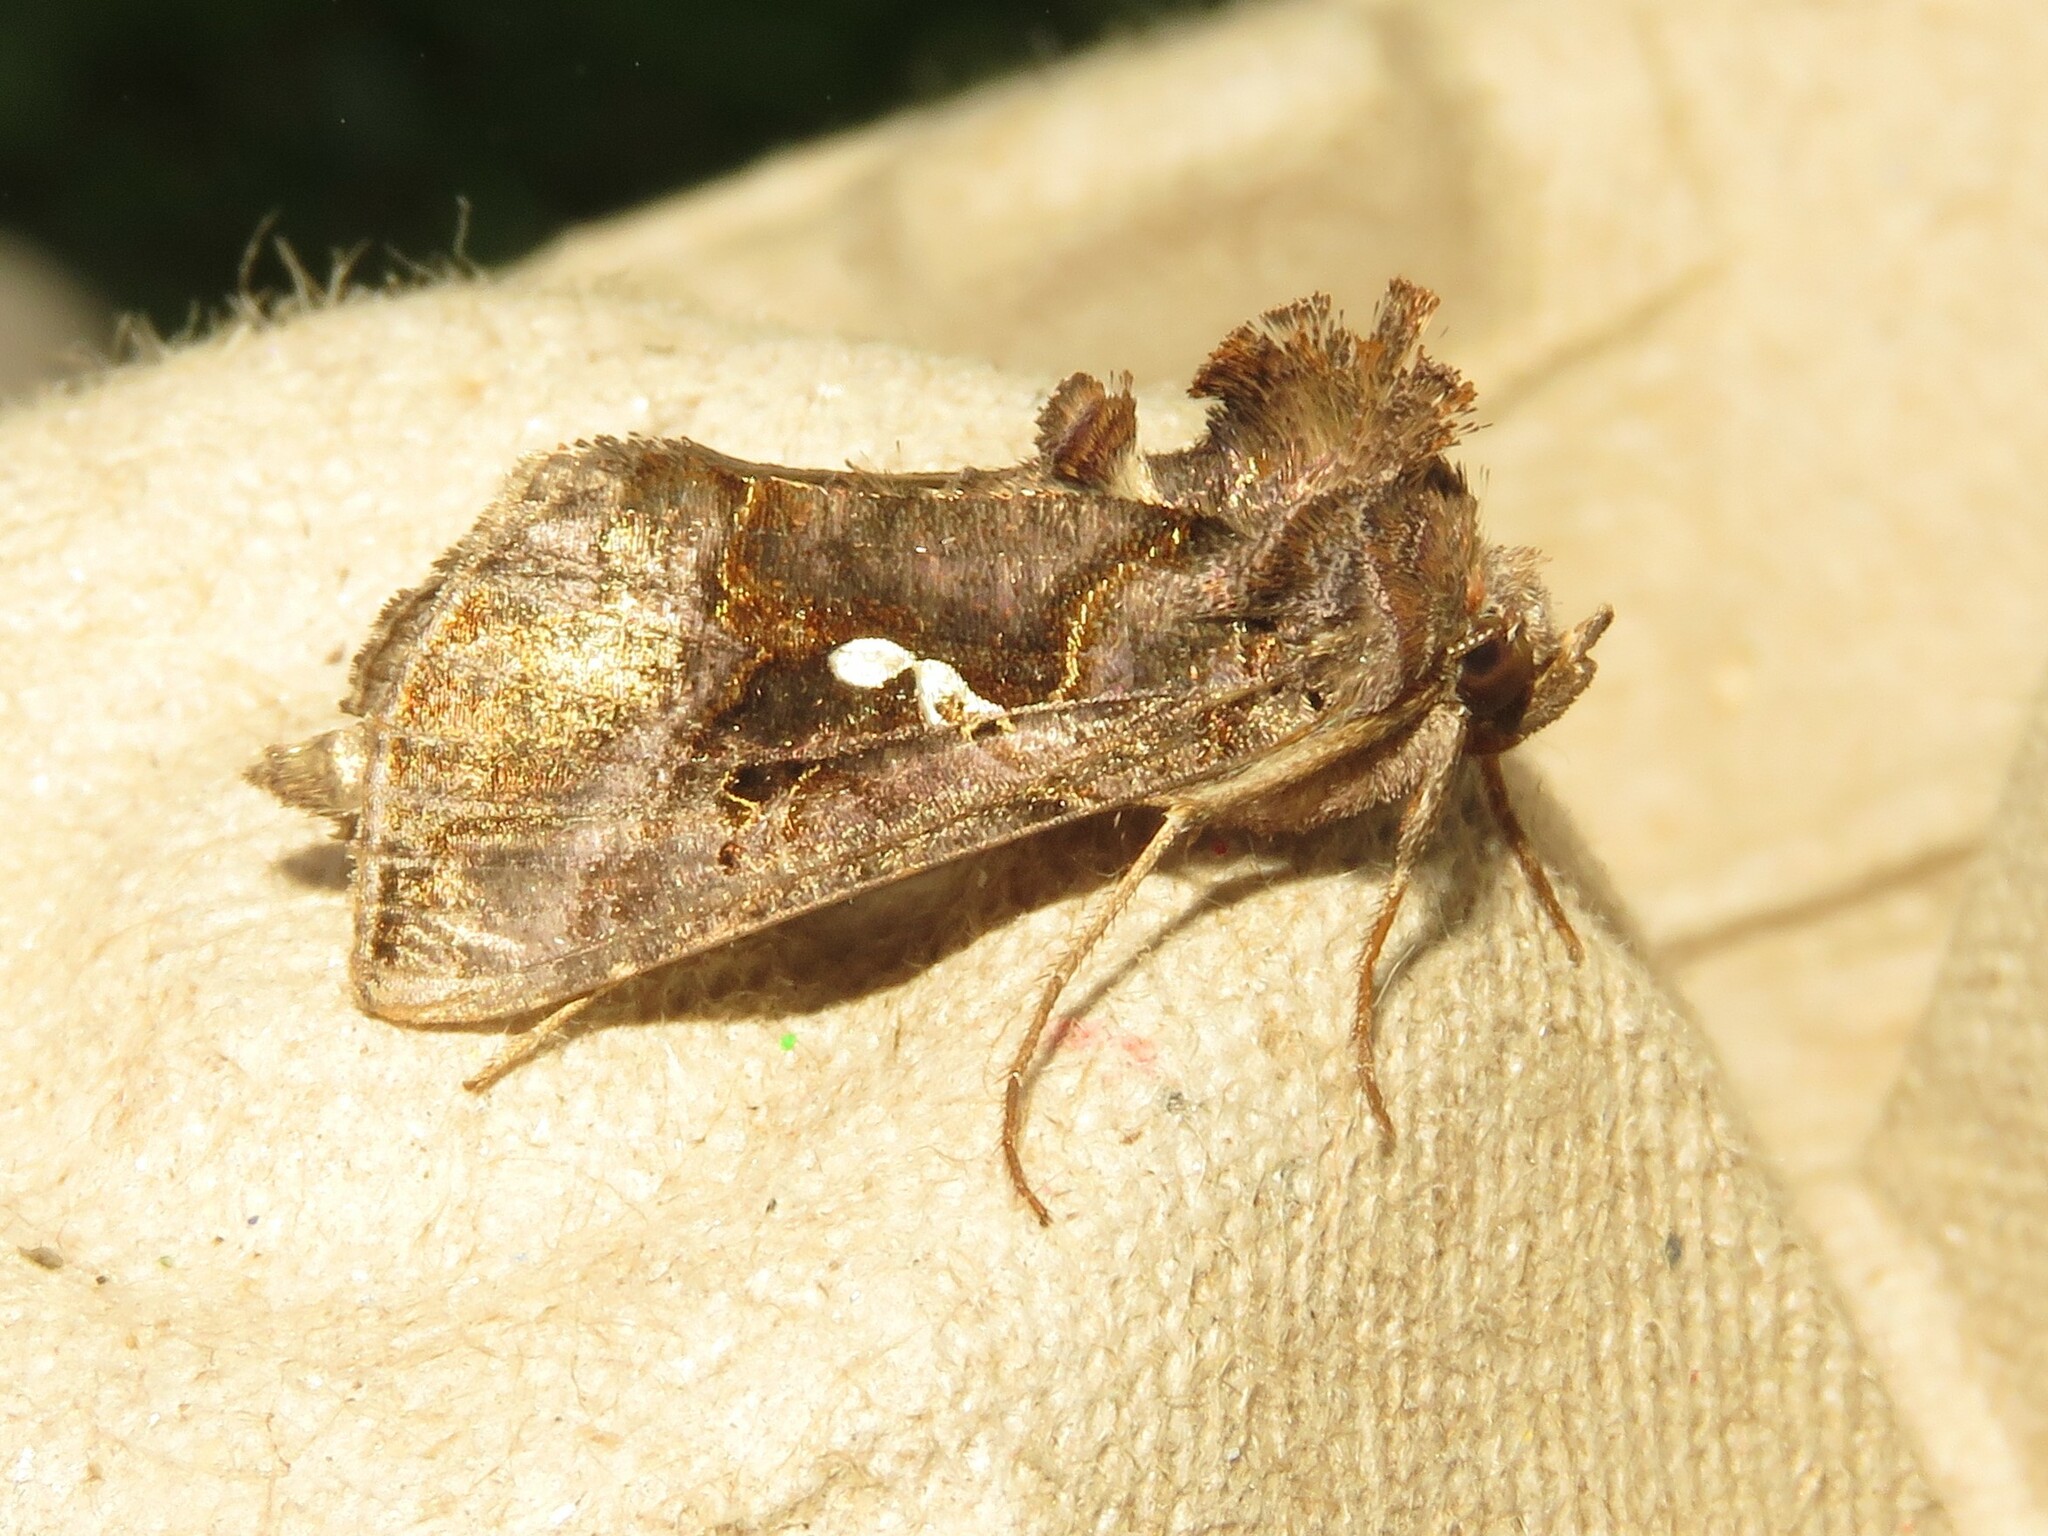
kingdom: Animalia
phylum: Arthropoda
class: Insecta
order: Lepidoptera
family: Noctuidae
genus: Autographa
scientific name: Autographa precationis
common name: Common looper moth
